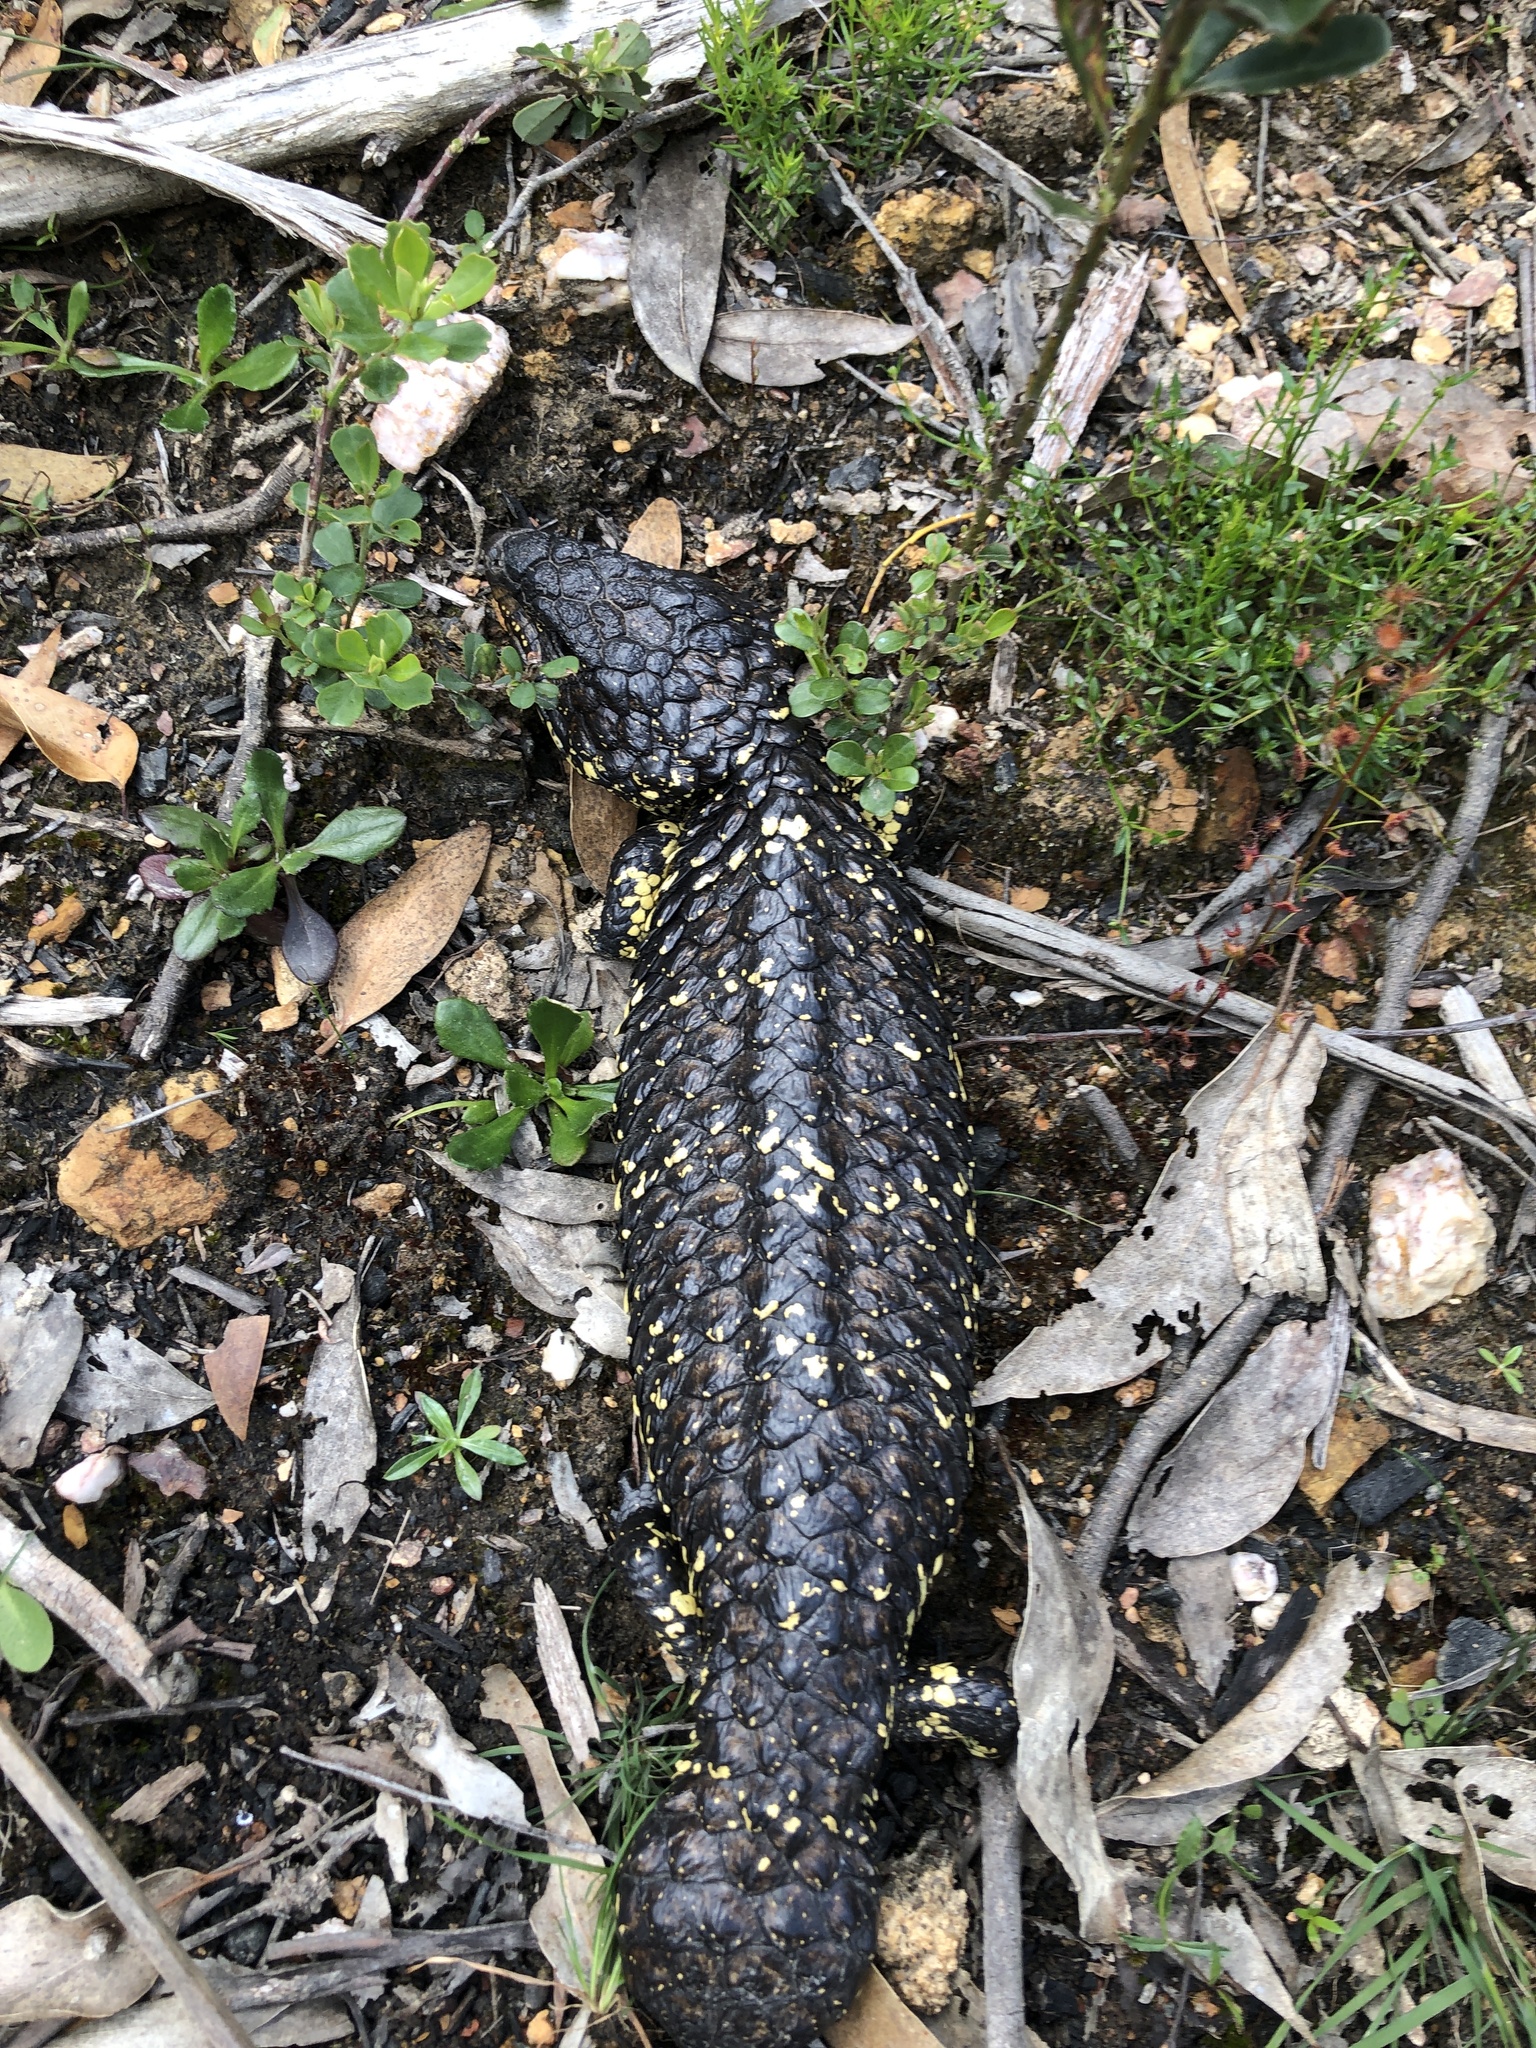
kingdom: Animalia
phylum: Chordata
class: Squamata
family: Scincidae
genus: Tiliqua
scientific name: Tiliqua rugosa
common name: Pinecone lizard
